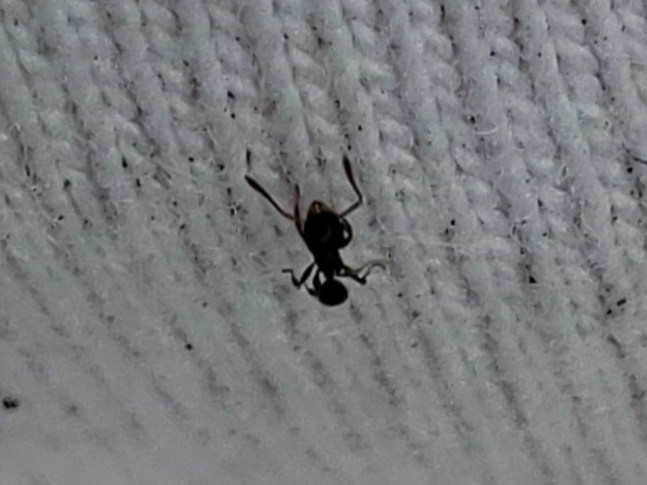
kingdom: Animalia
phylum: Arthropoda
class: Insecta
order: Hymenoptera
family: Formicidae
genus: Pheidole
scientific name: Pheidole adrianoi
